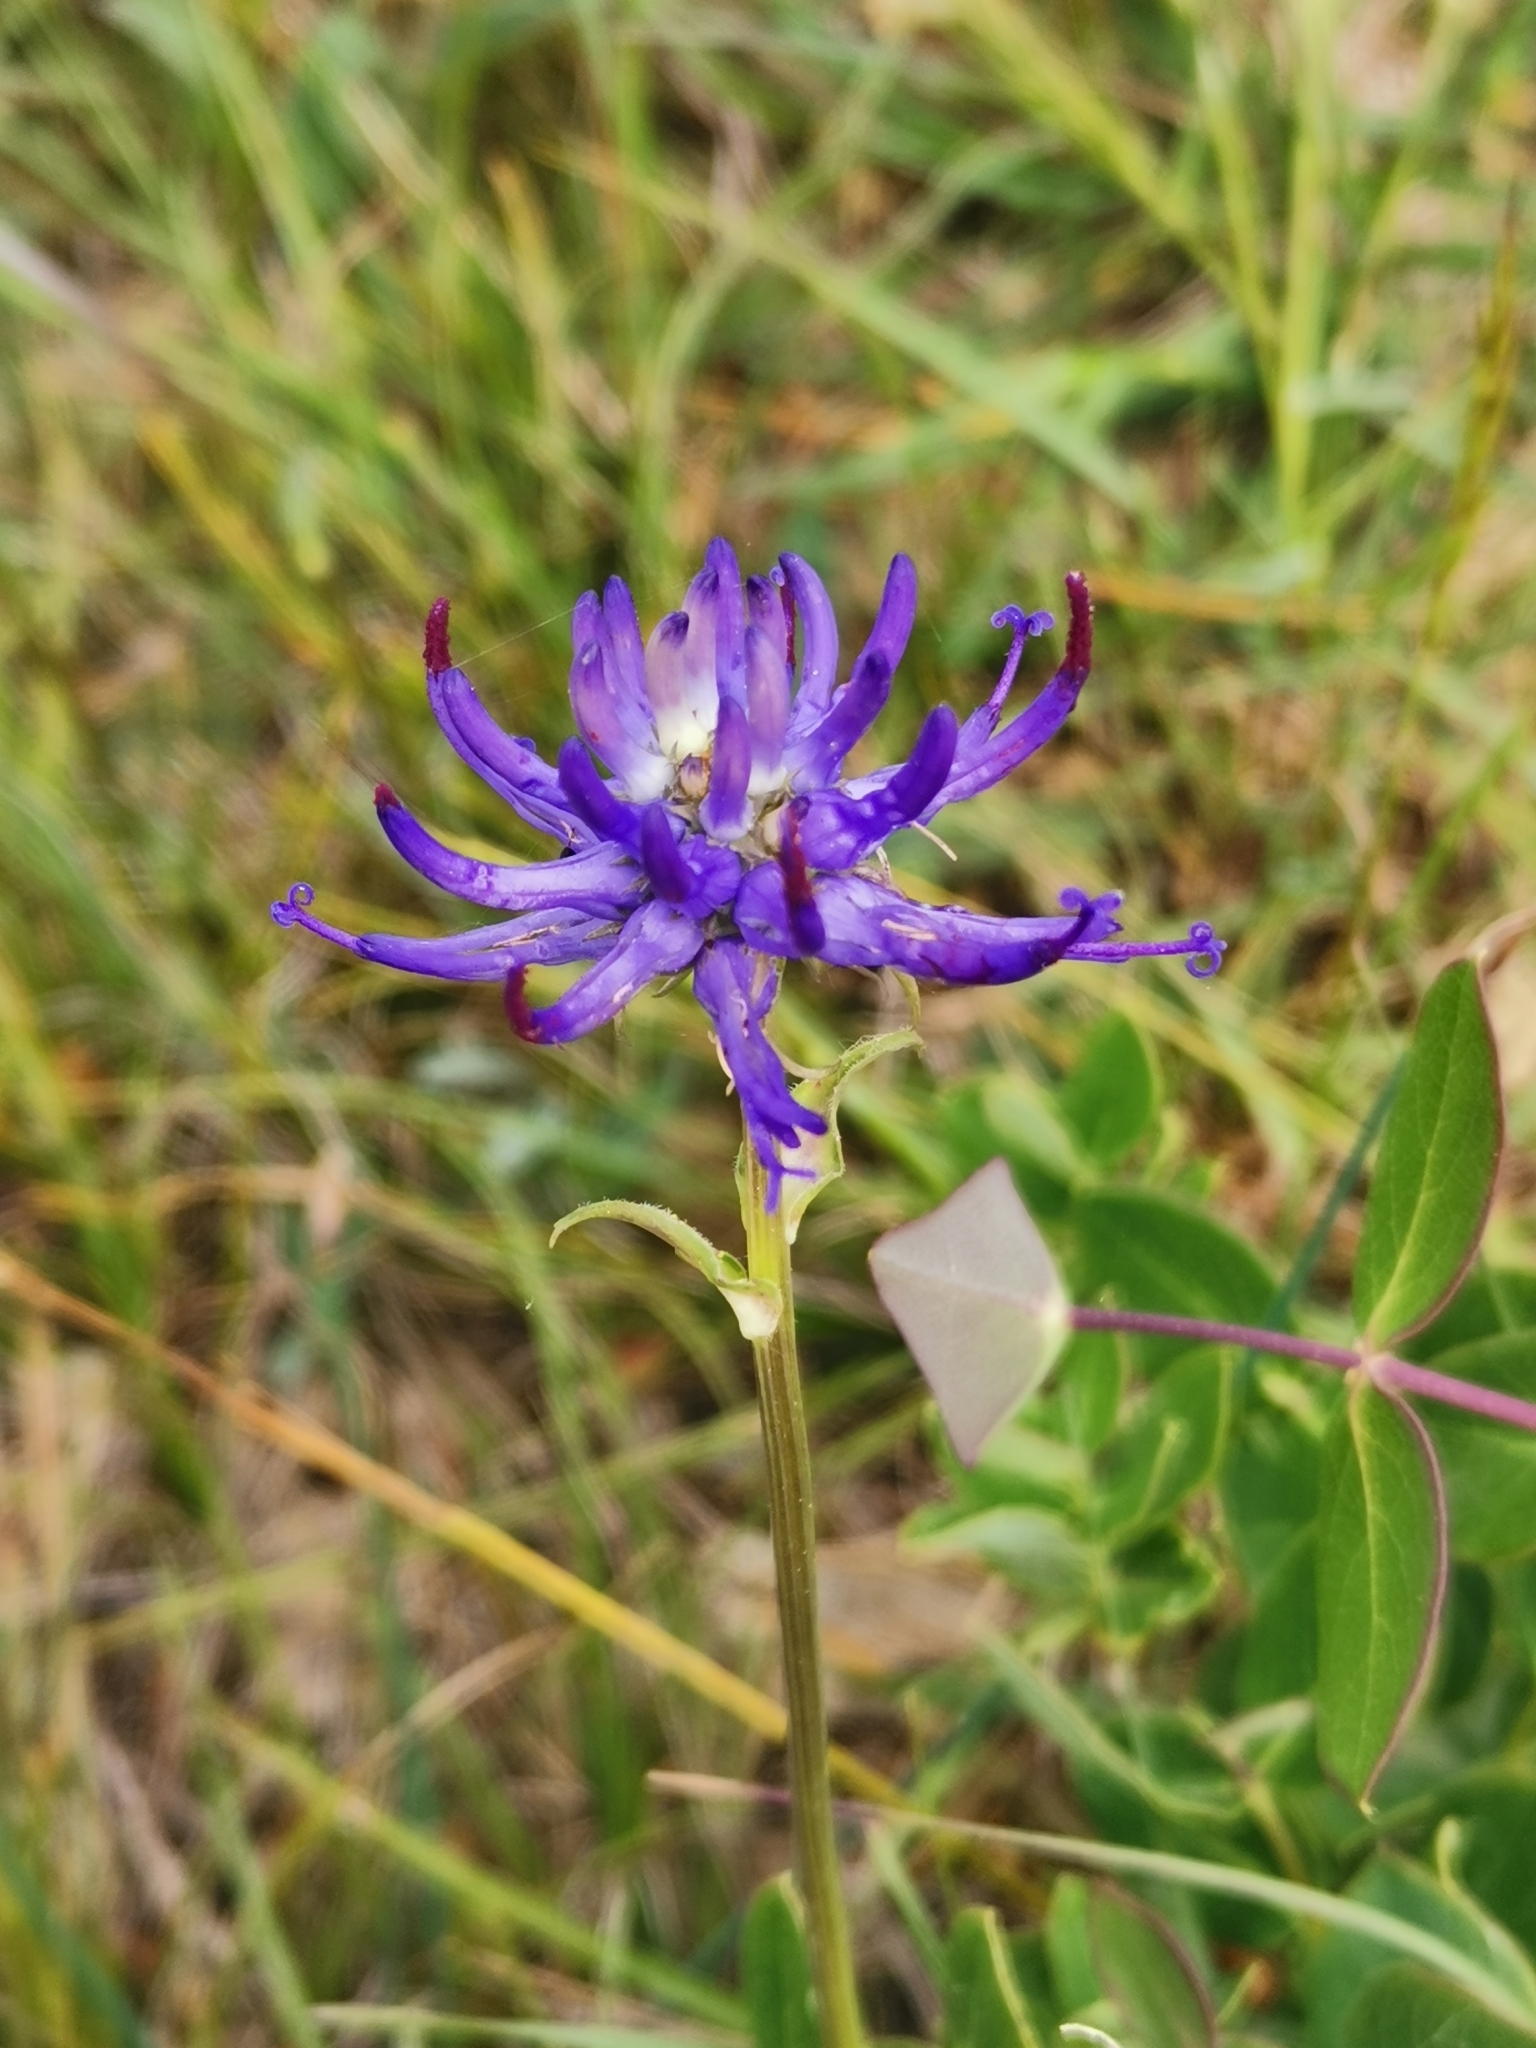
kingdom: Plantae
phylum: Tracheophyta
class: Magnoliopsida
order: Asterales
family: Campanulaceae
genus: Phyteuma
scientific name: Phyteuma orbiculare
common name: Round-headed rampion
